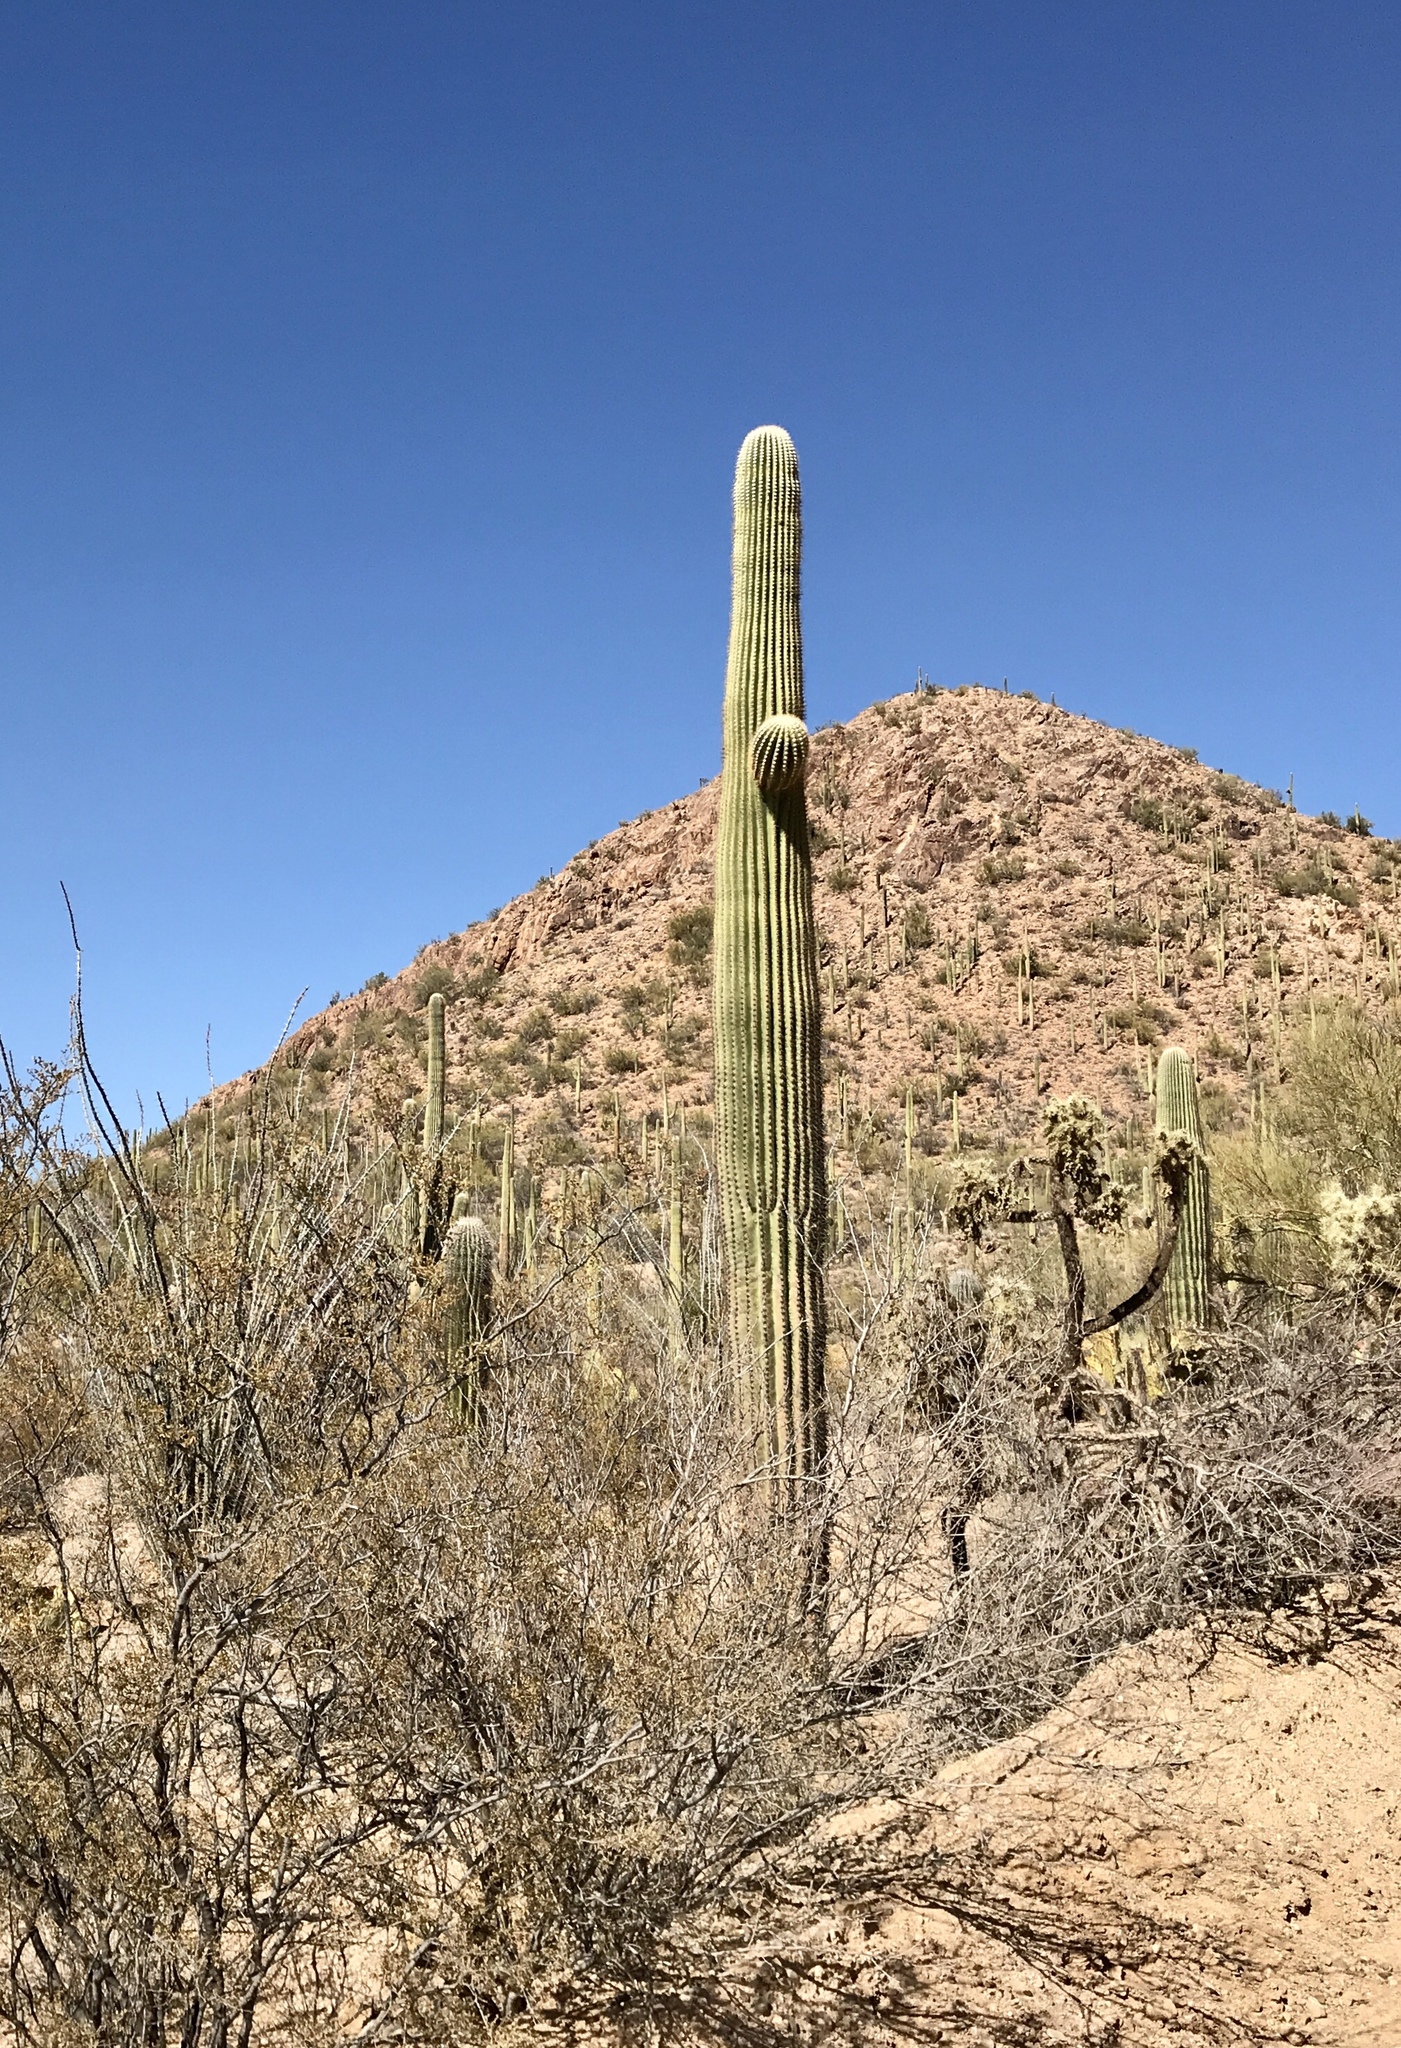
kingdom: Plantae
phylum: Tracheophyta
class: Magnoliopsida
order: Caryophyllales
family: Cactaceae
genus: Carnegiea
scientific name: Carnegiea gigantea
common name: Saguaro
